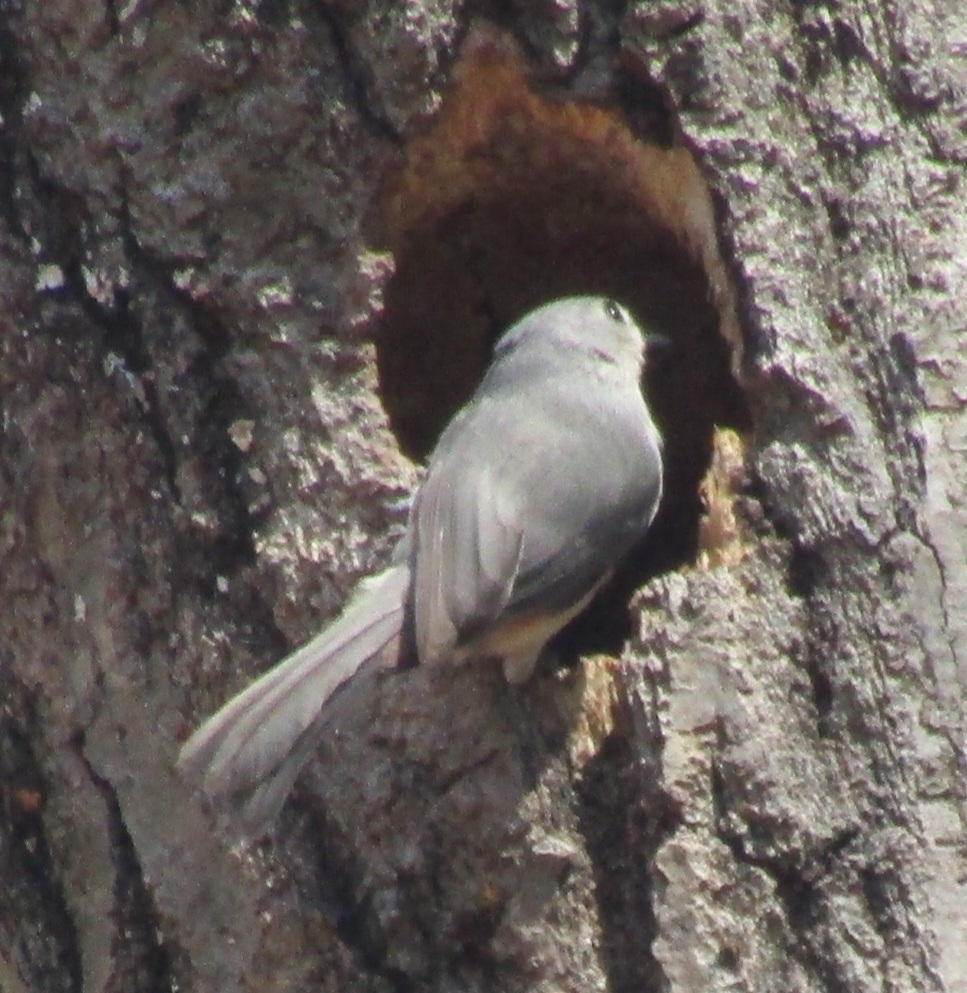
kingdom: Animalia
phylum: Chordata
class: Aves
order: Passeriformes
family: Paridae
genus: Baeolophus
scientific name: Baeolophus bicolor
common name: Tufted titmouse
